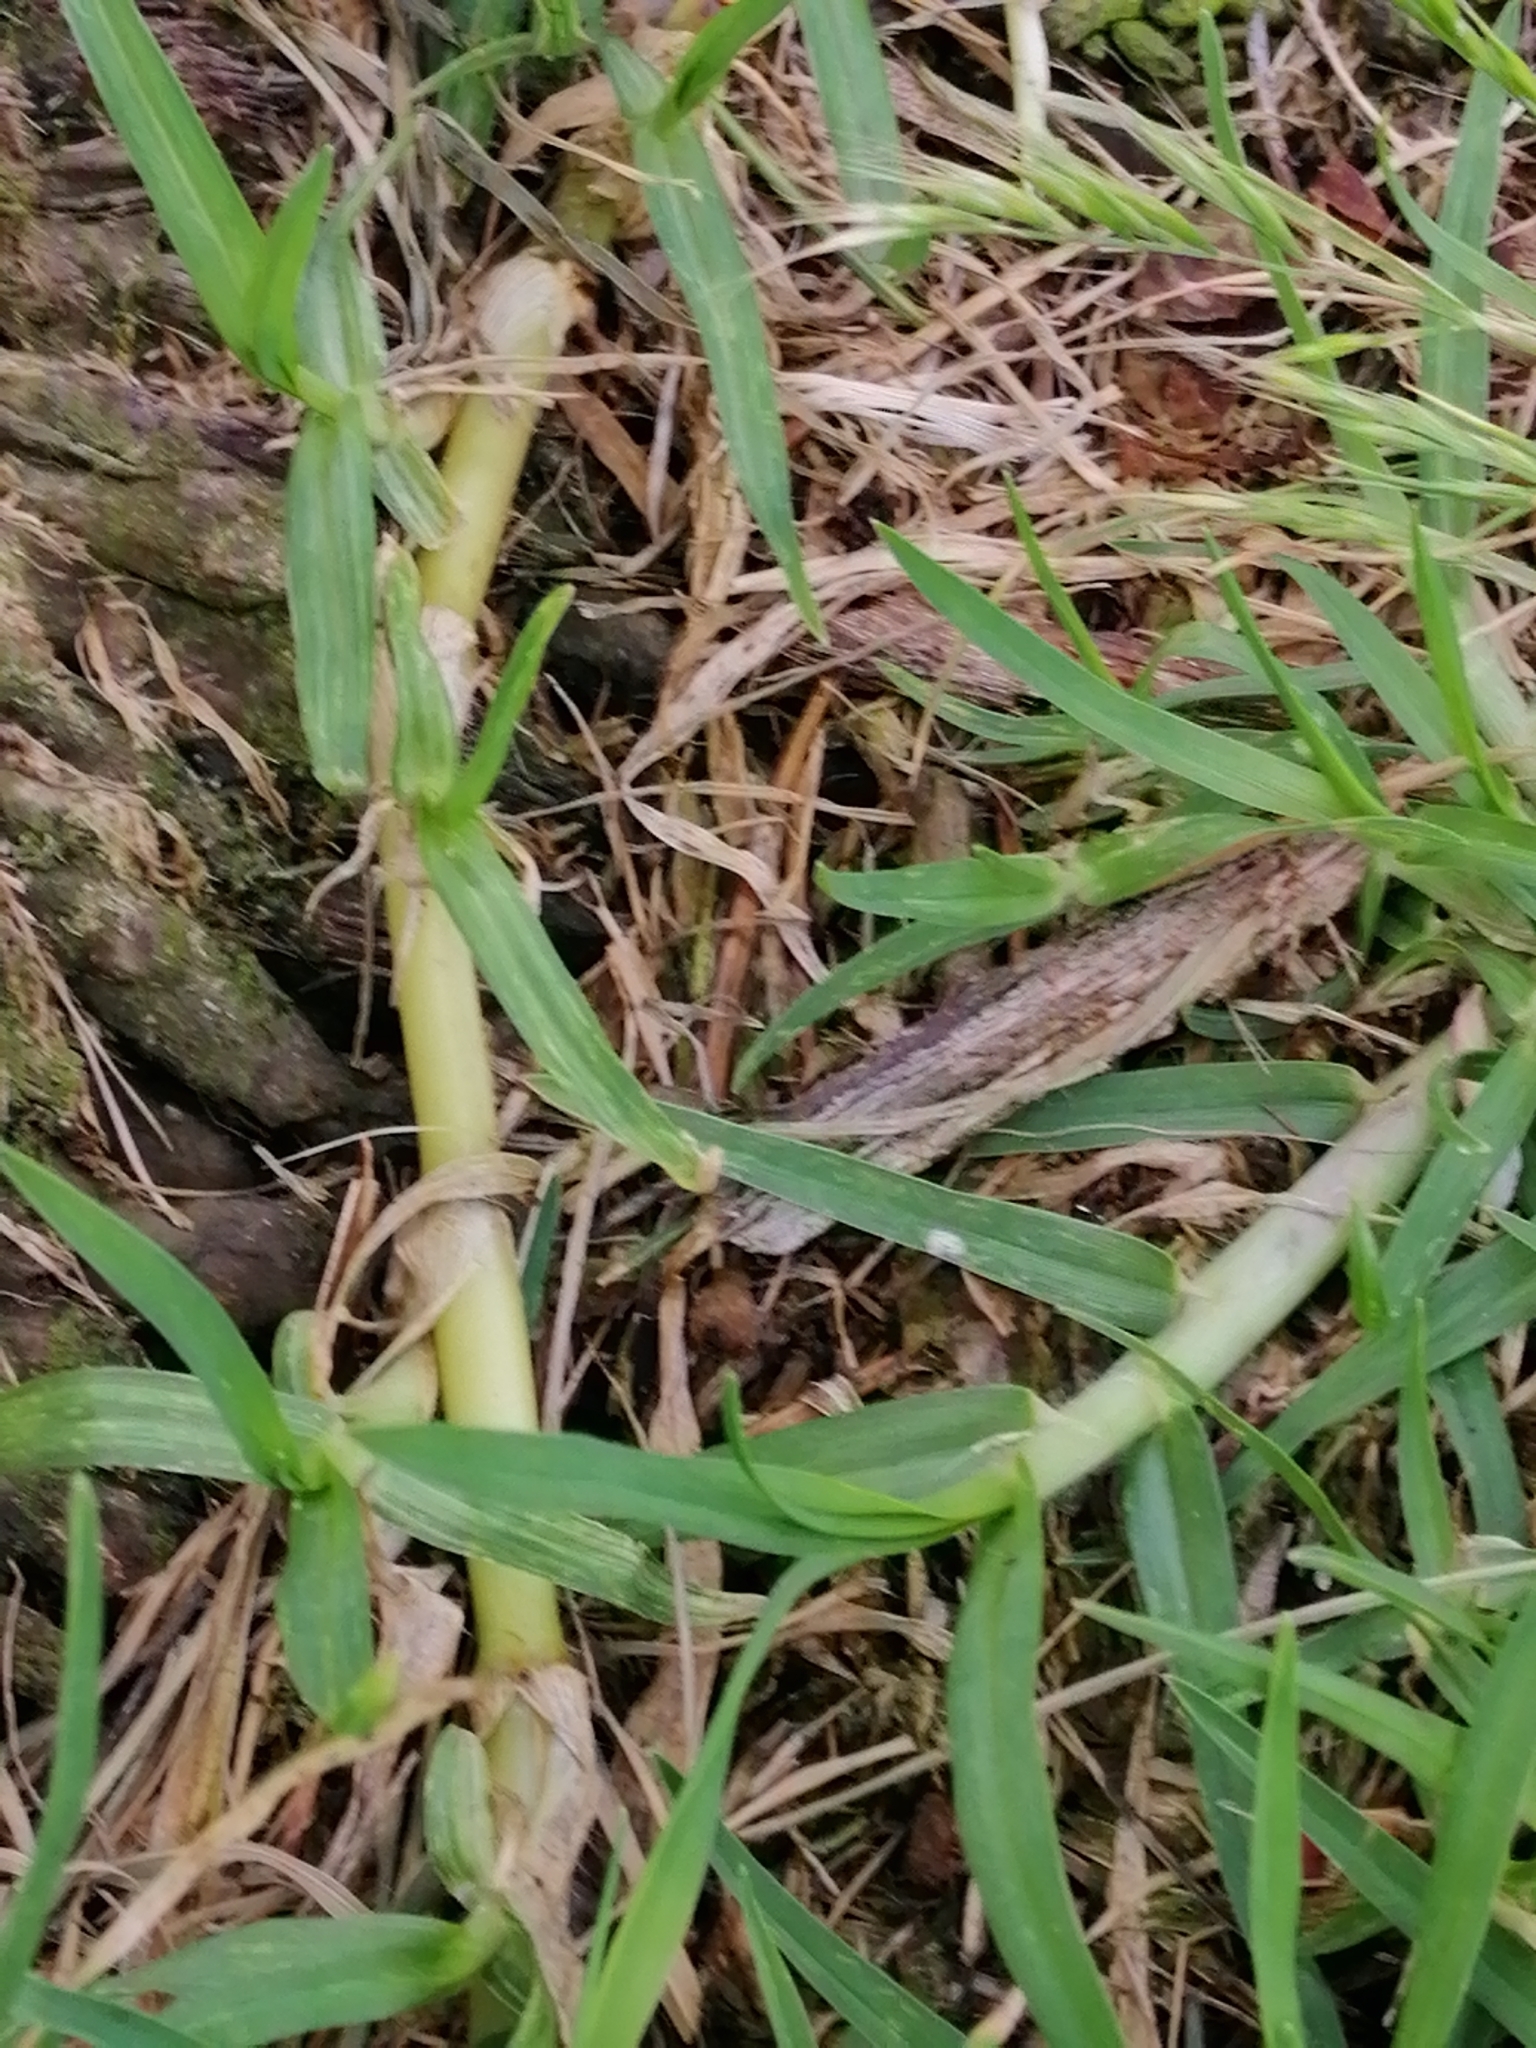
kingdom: Plantae
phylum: Tracheophyta
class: Liliopsida
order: Poales
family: Poaceae
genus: Cenchrus
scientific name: Cenchrus clandestinus
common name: Kikuyugrass
